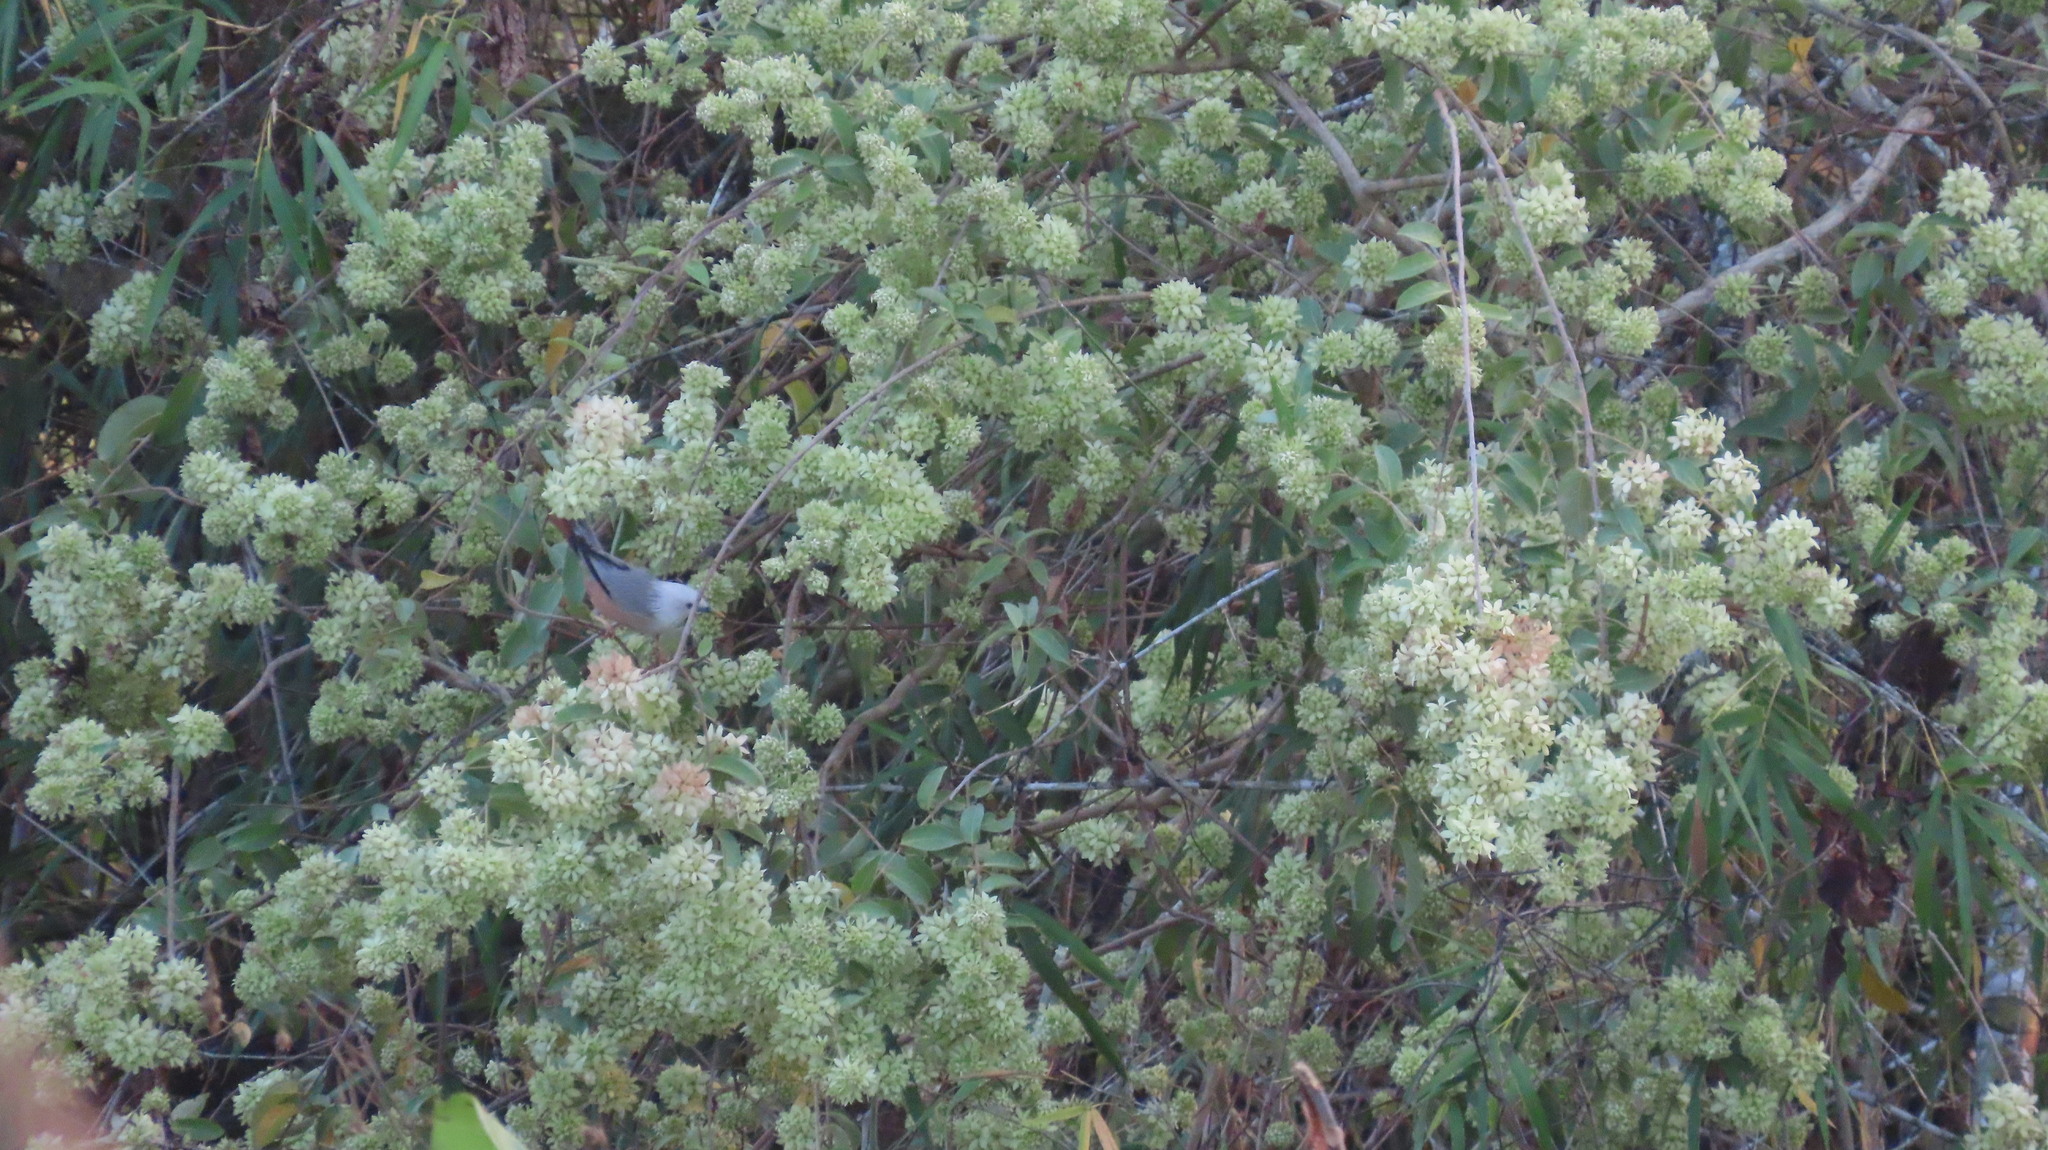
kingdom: Animalia
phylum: Chordata
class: Aves
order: Passeriformes
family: Sturnidae
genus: Sturnia
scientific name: Sturnia blythii
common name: Malabar starling
